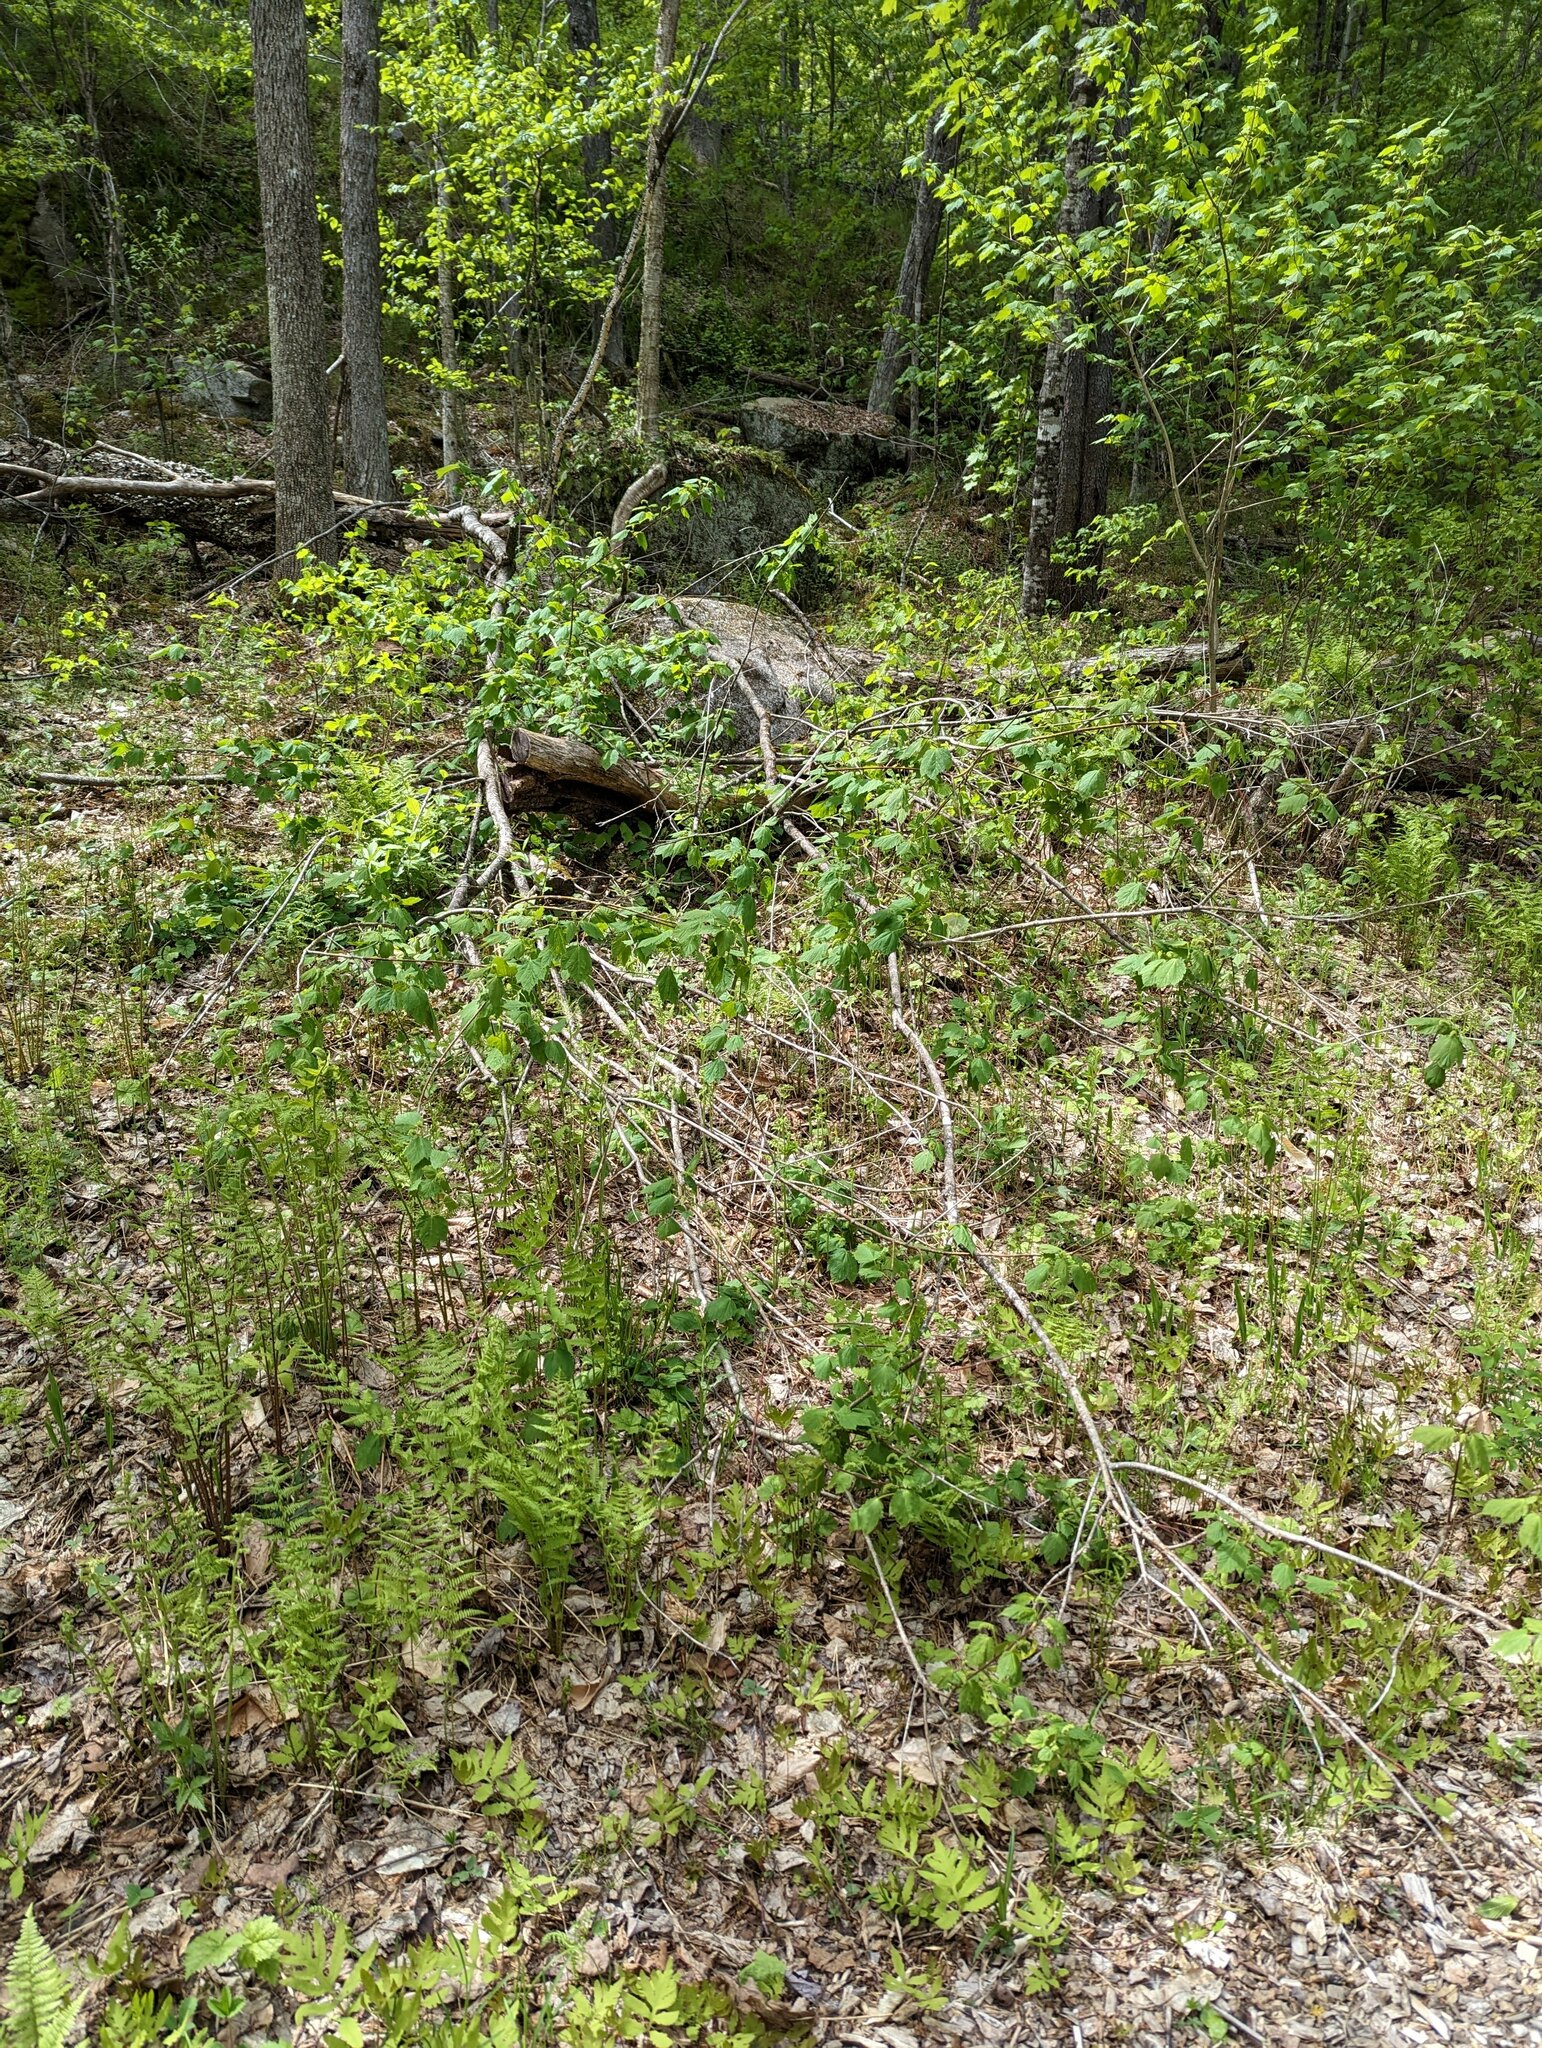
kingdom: Plantae
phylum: Tracheophyta
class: Magnoliopsida
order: Sapindales
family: Sapindaceae
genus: Acer
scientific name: Acer spicatum
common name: Mountain maple
